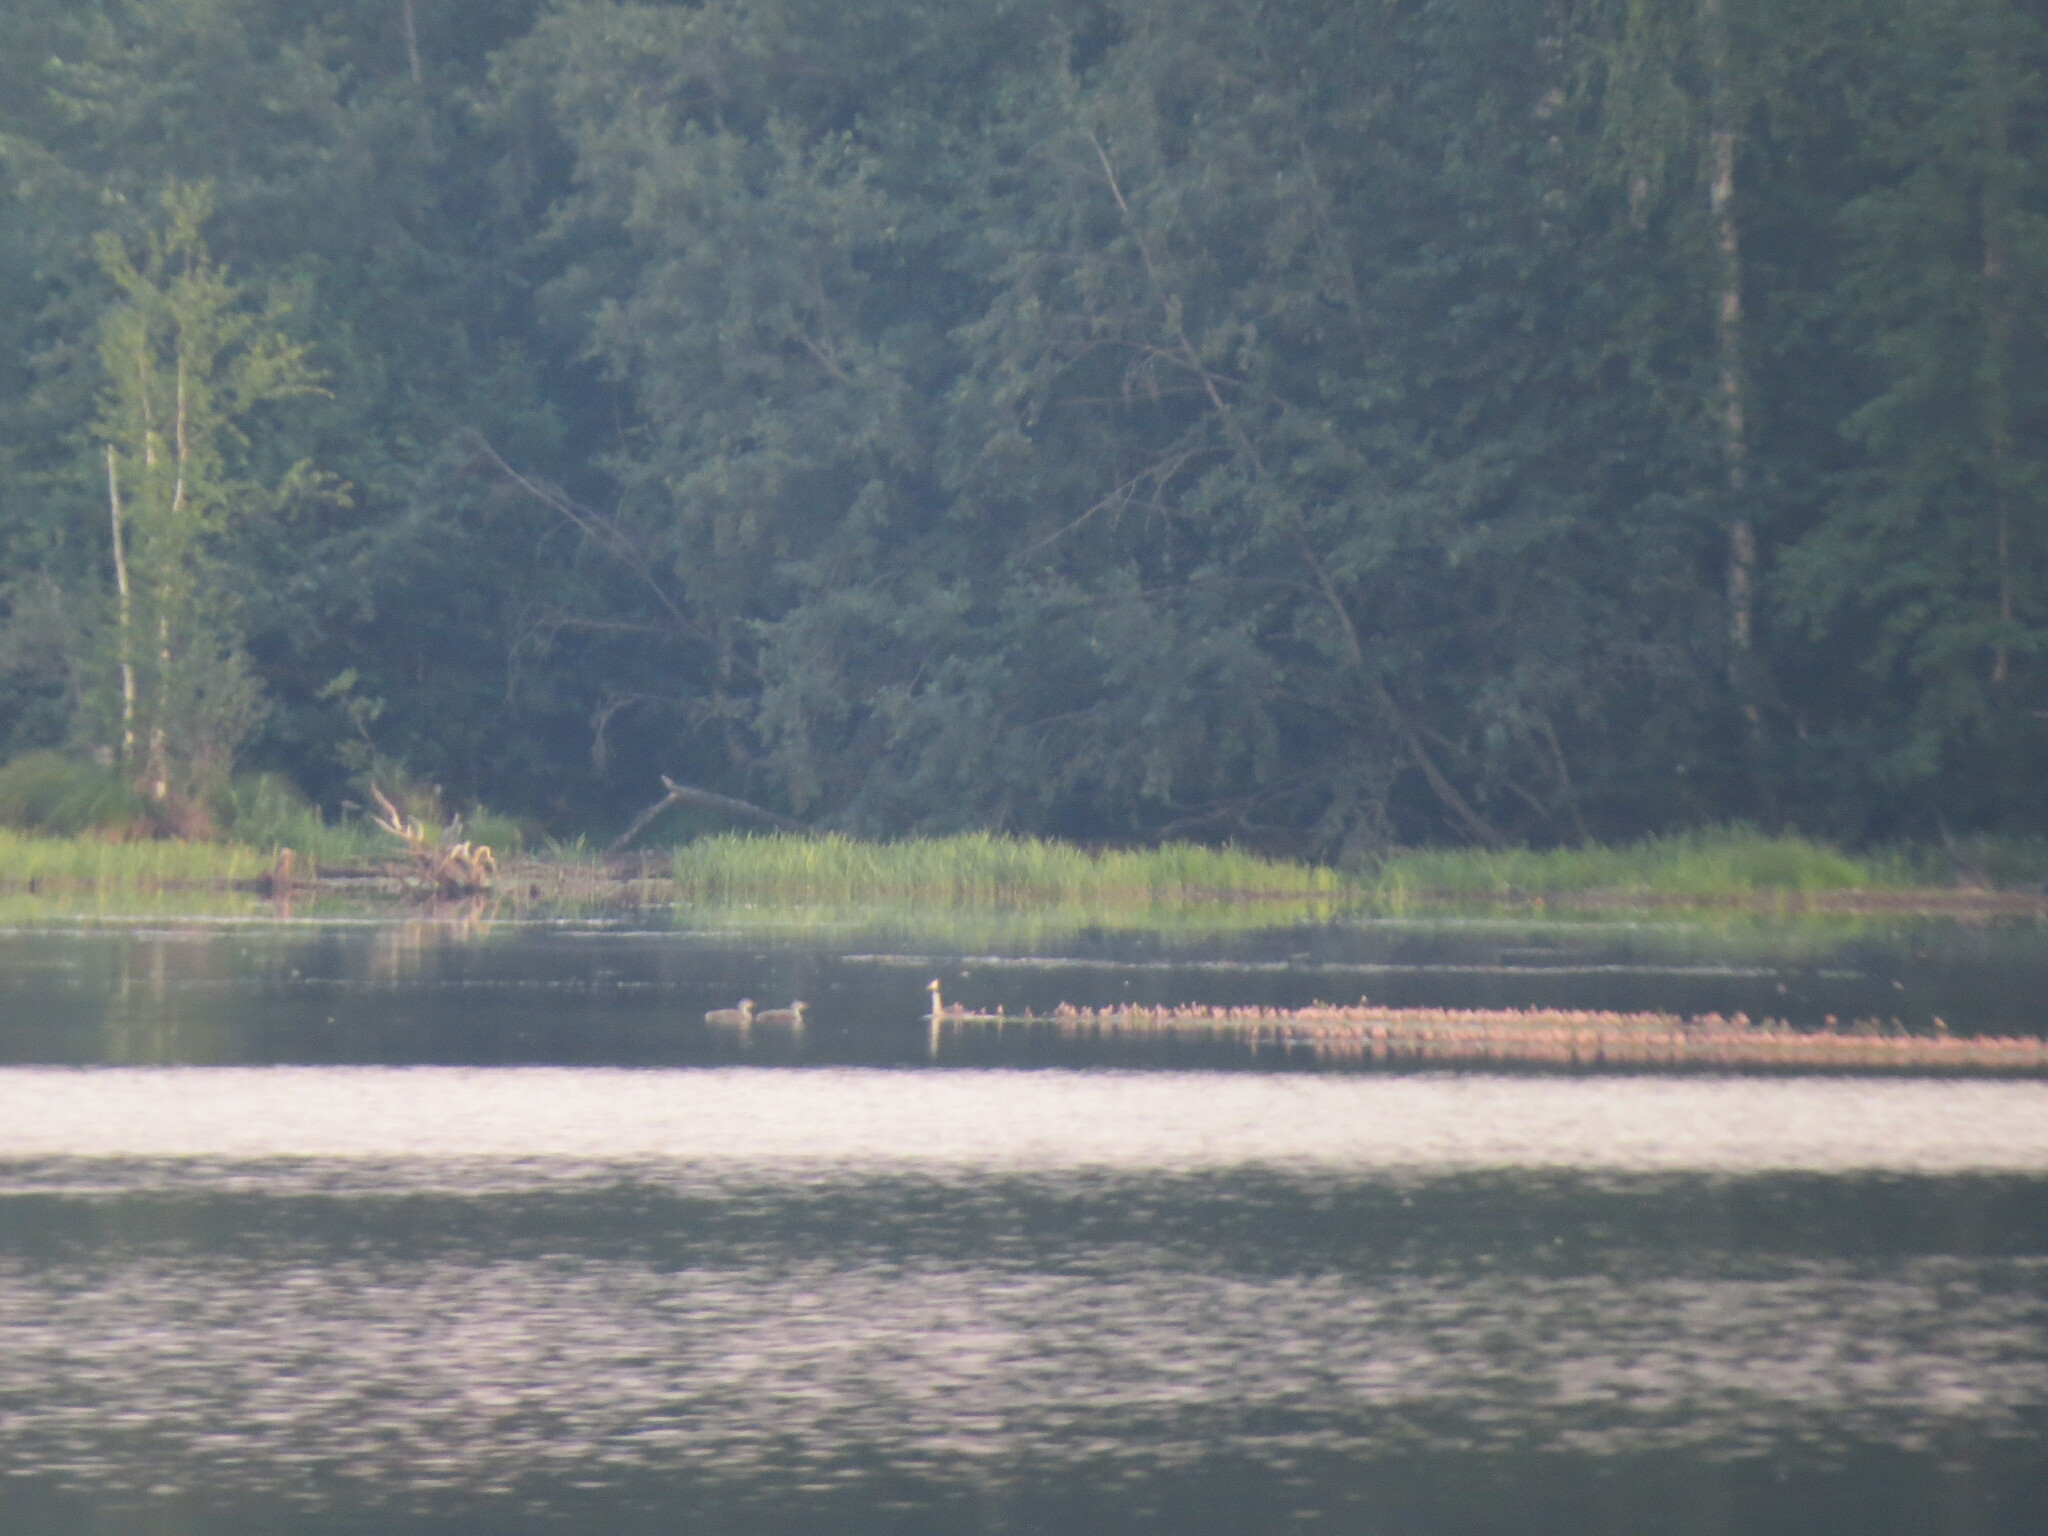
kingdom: Animalia
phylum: Chordata
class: Aves
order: Podicipediformes
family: Podicipedidae
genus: Podiceps
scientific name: Podiceps cristatus
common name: Great crested grebe
